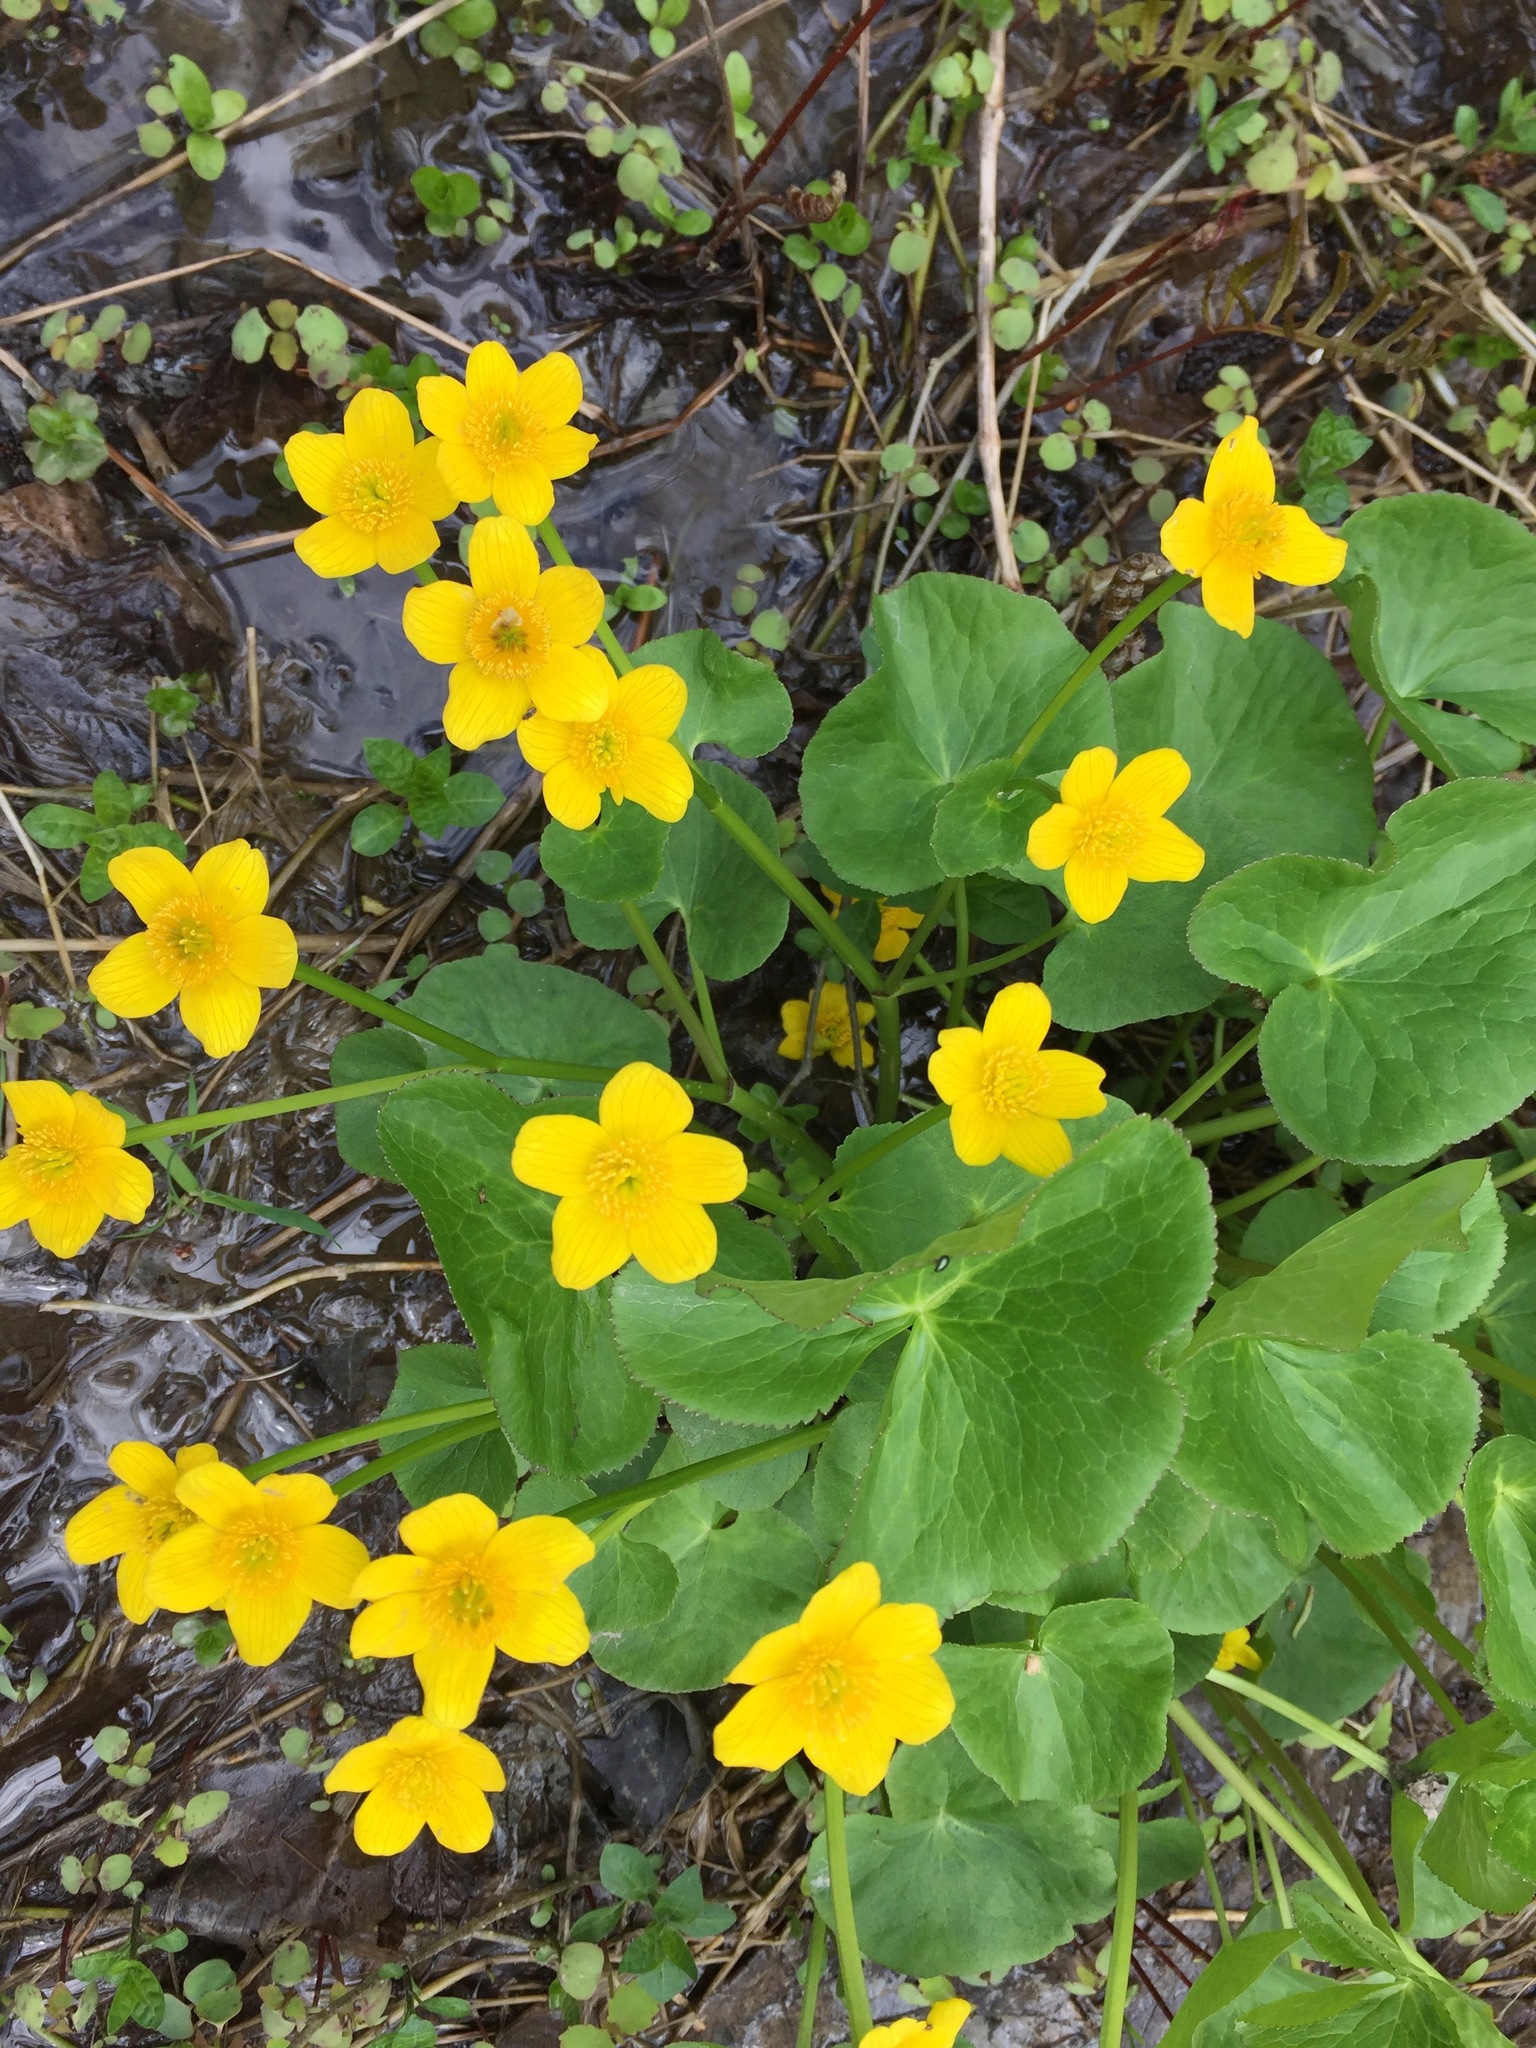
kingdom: Plantae
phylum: Tracheophyta
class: Magnoliopsida
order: Ranunculales
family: Ranunculaceae
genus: Caltha
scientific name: Caltha palustris
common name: Marsh marigold
